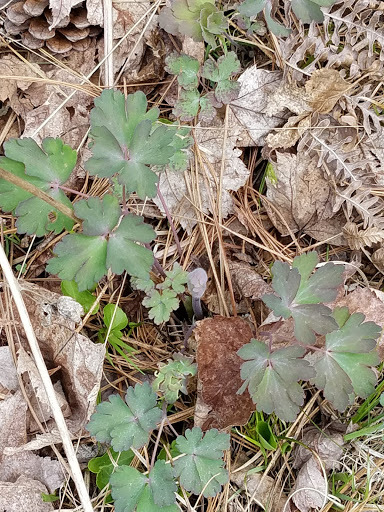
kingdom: Plantae
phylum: Tracheophyta
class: Magnoliopsida
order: Ranunculales
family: Ranunculaceae
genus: Aquilegia
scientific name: Aquilegia canadensis
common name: American columbine
